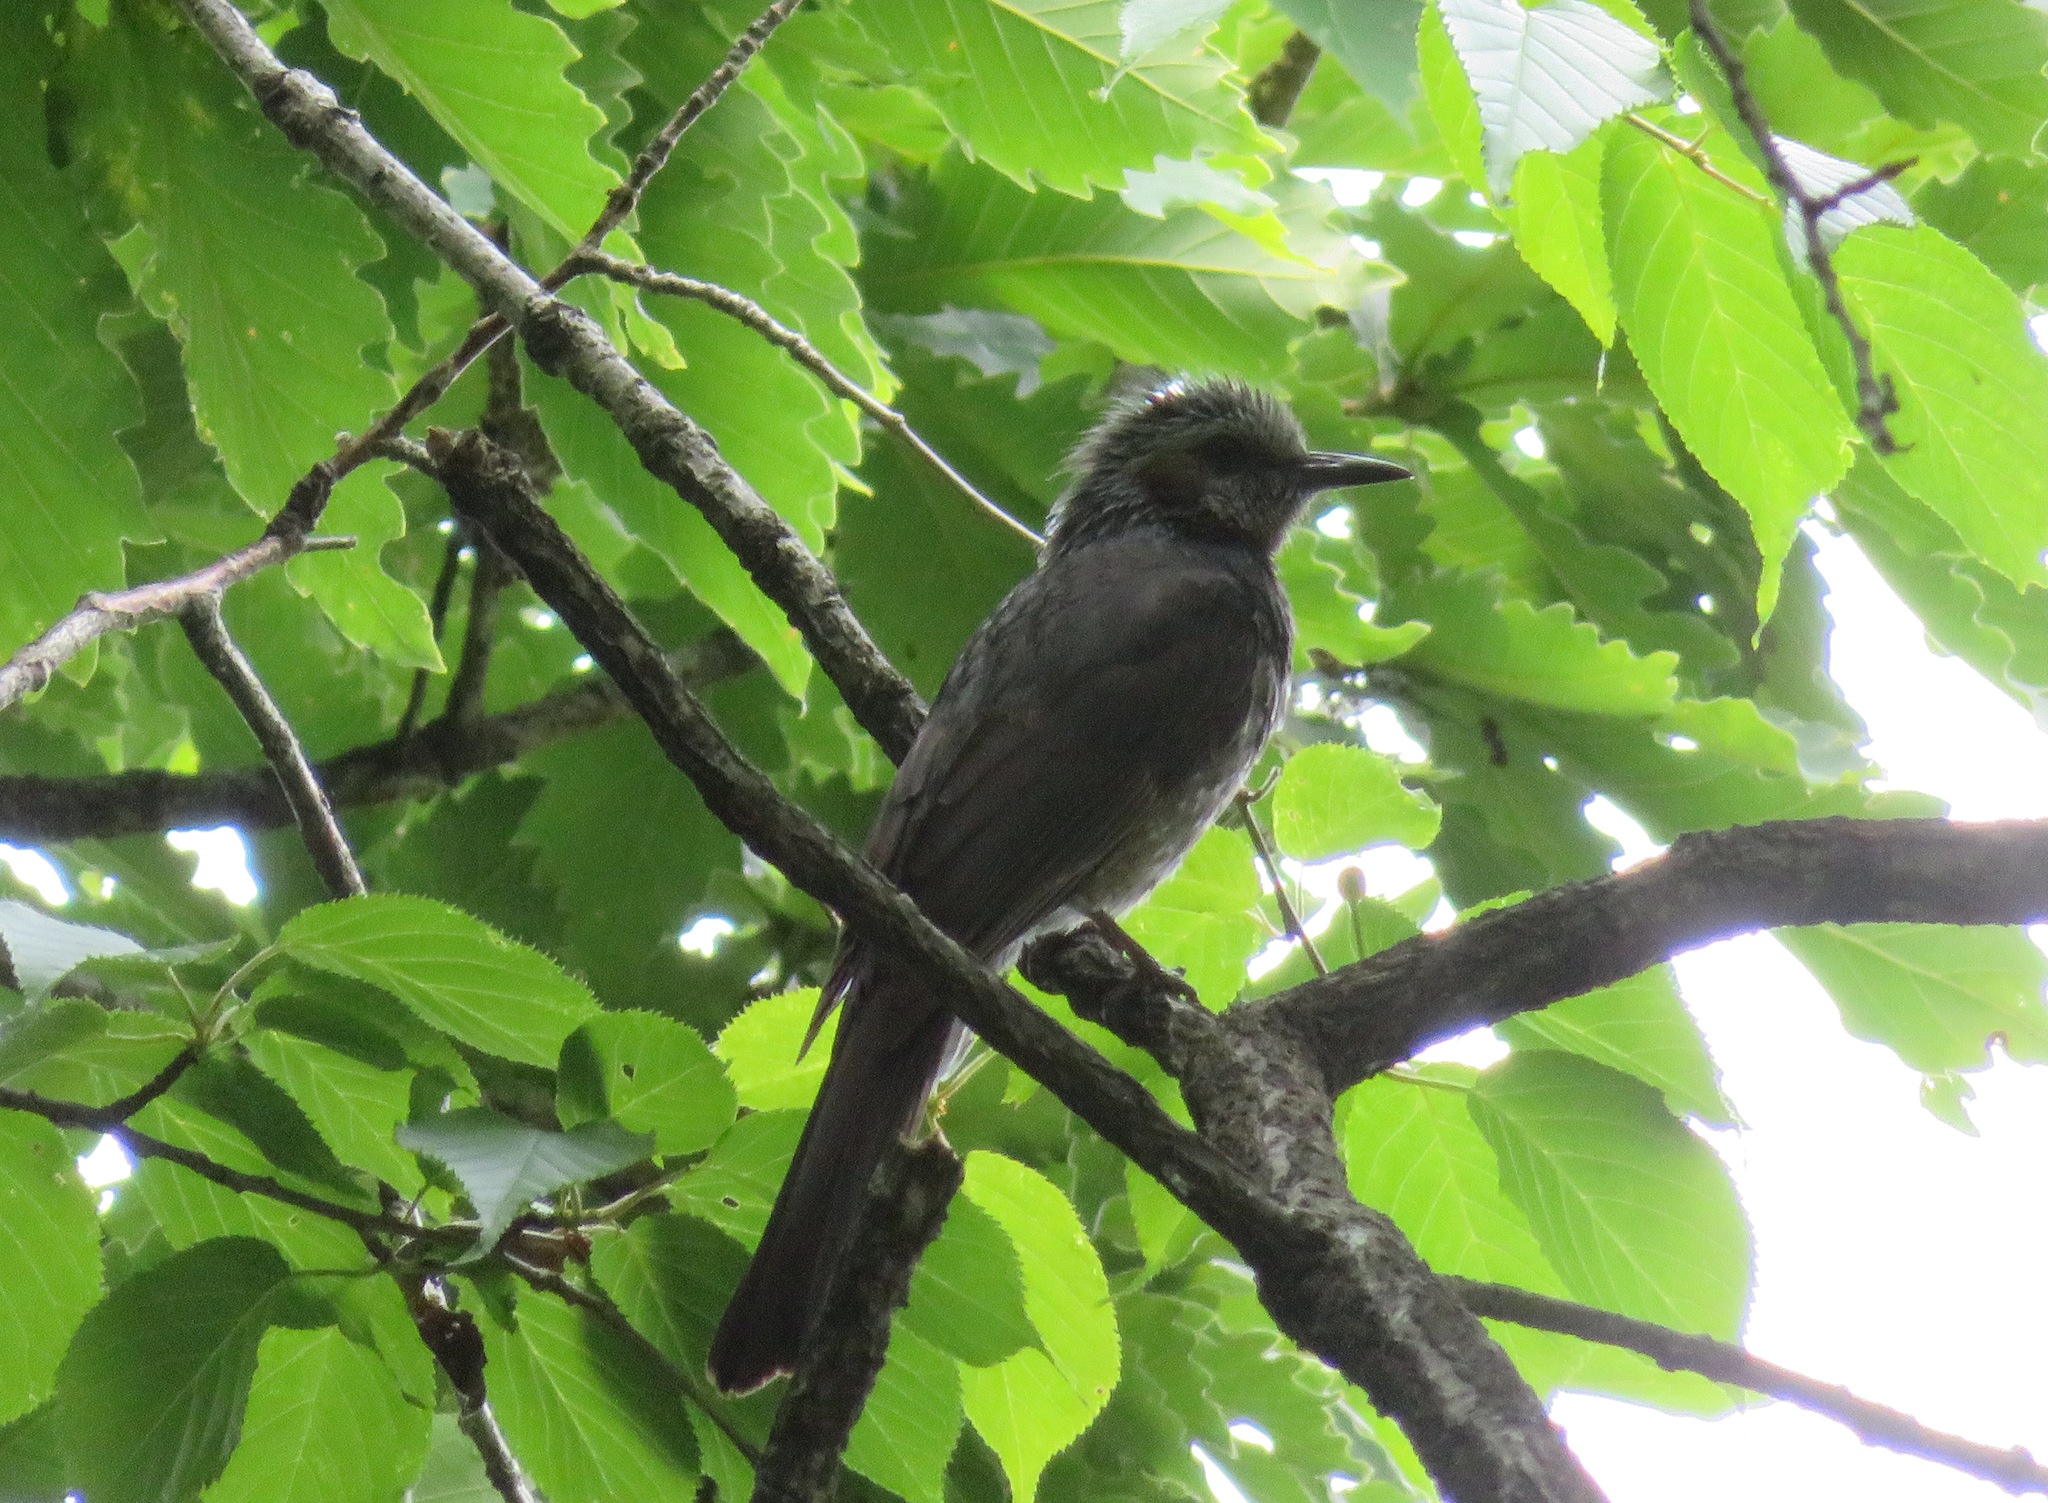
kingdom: Animalia
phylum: Chordata
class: Aves
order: Passeriformes
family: Pycnonotidae
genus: Hypsipetes
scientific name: Hypsipetes amaurotis
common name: Brown-eared bulbul
